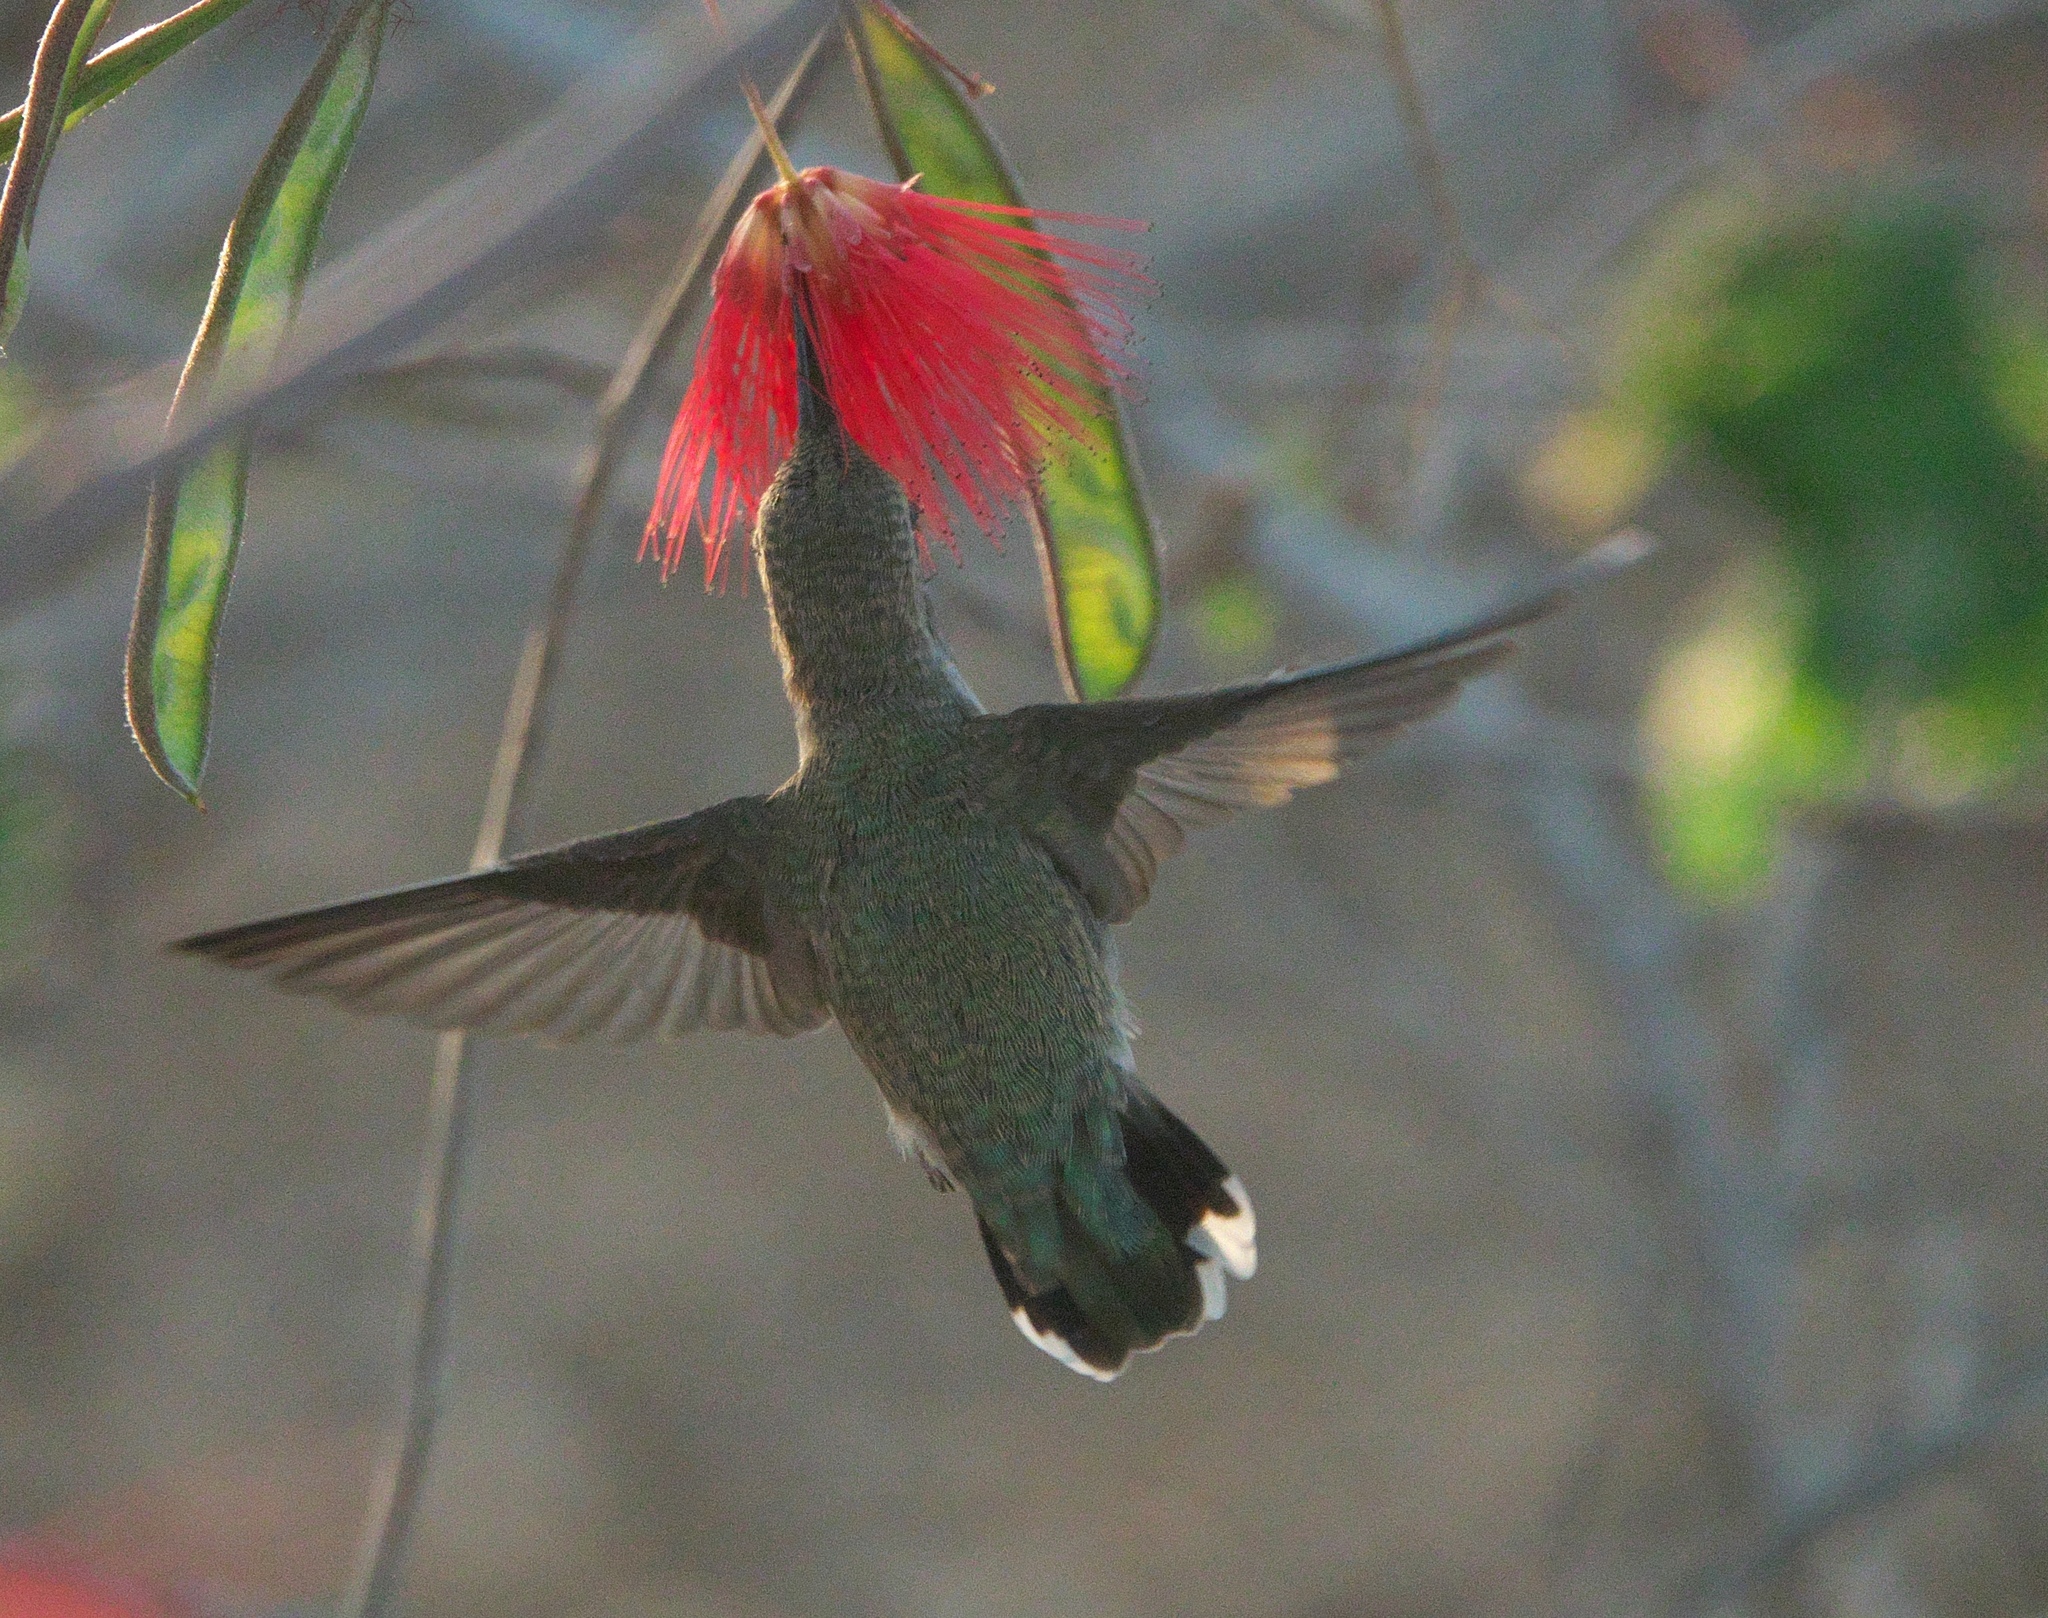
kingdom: Animalia
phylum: Chordata
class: Aves
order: Apodiformes
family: Trochilidae
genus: Calypte
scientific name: Calypte costae
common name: Costa's hummingbird
